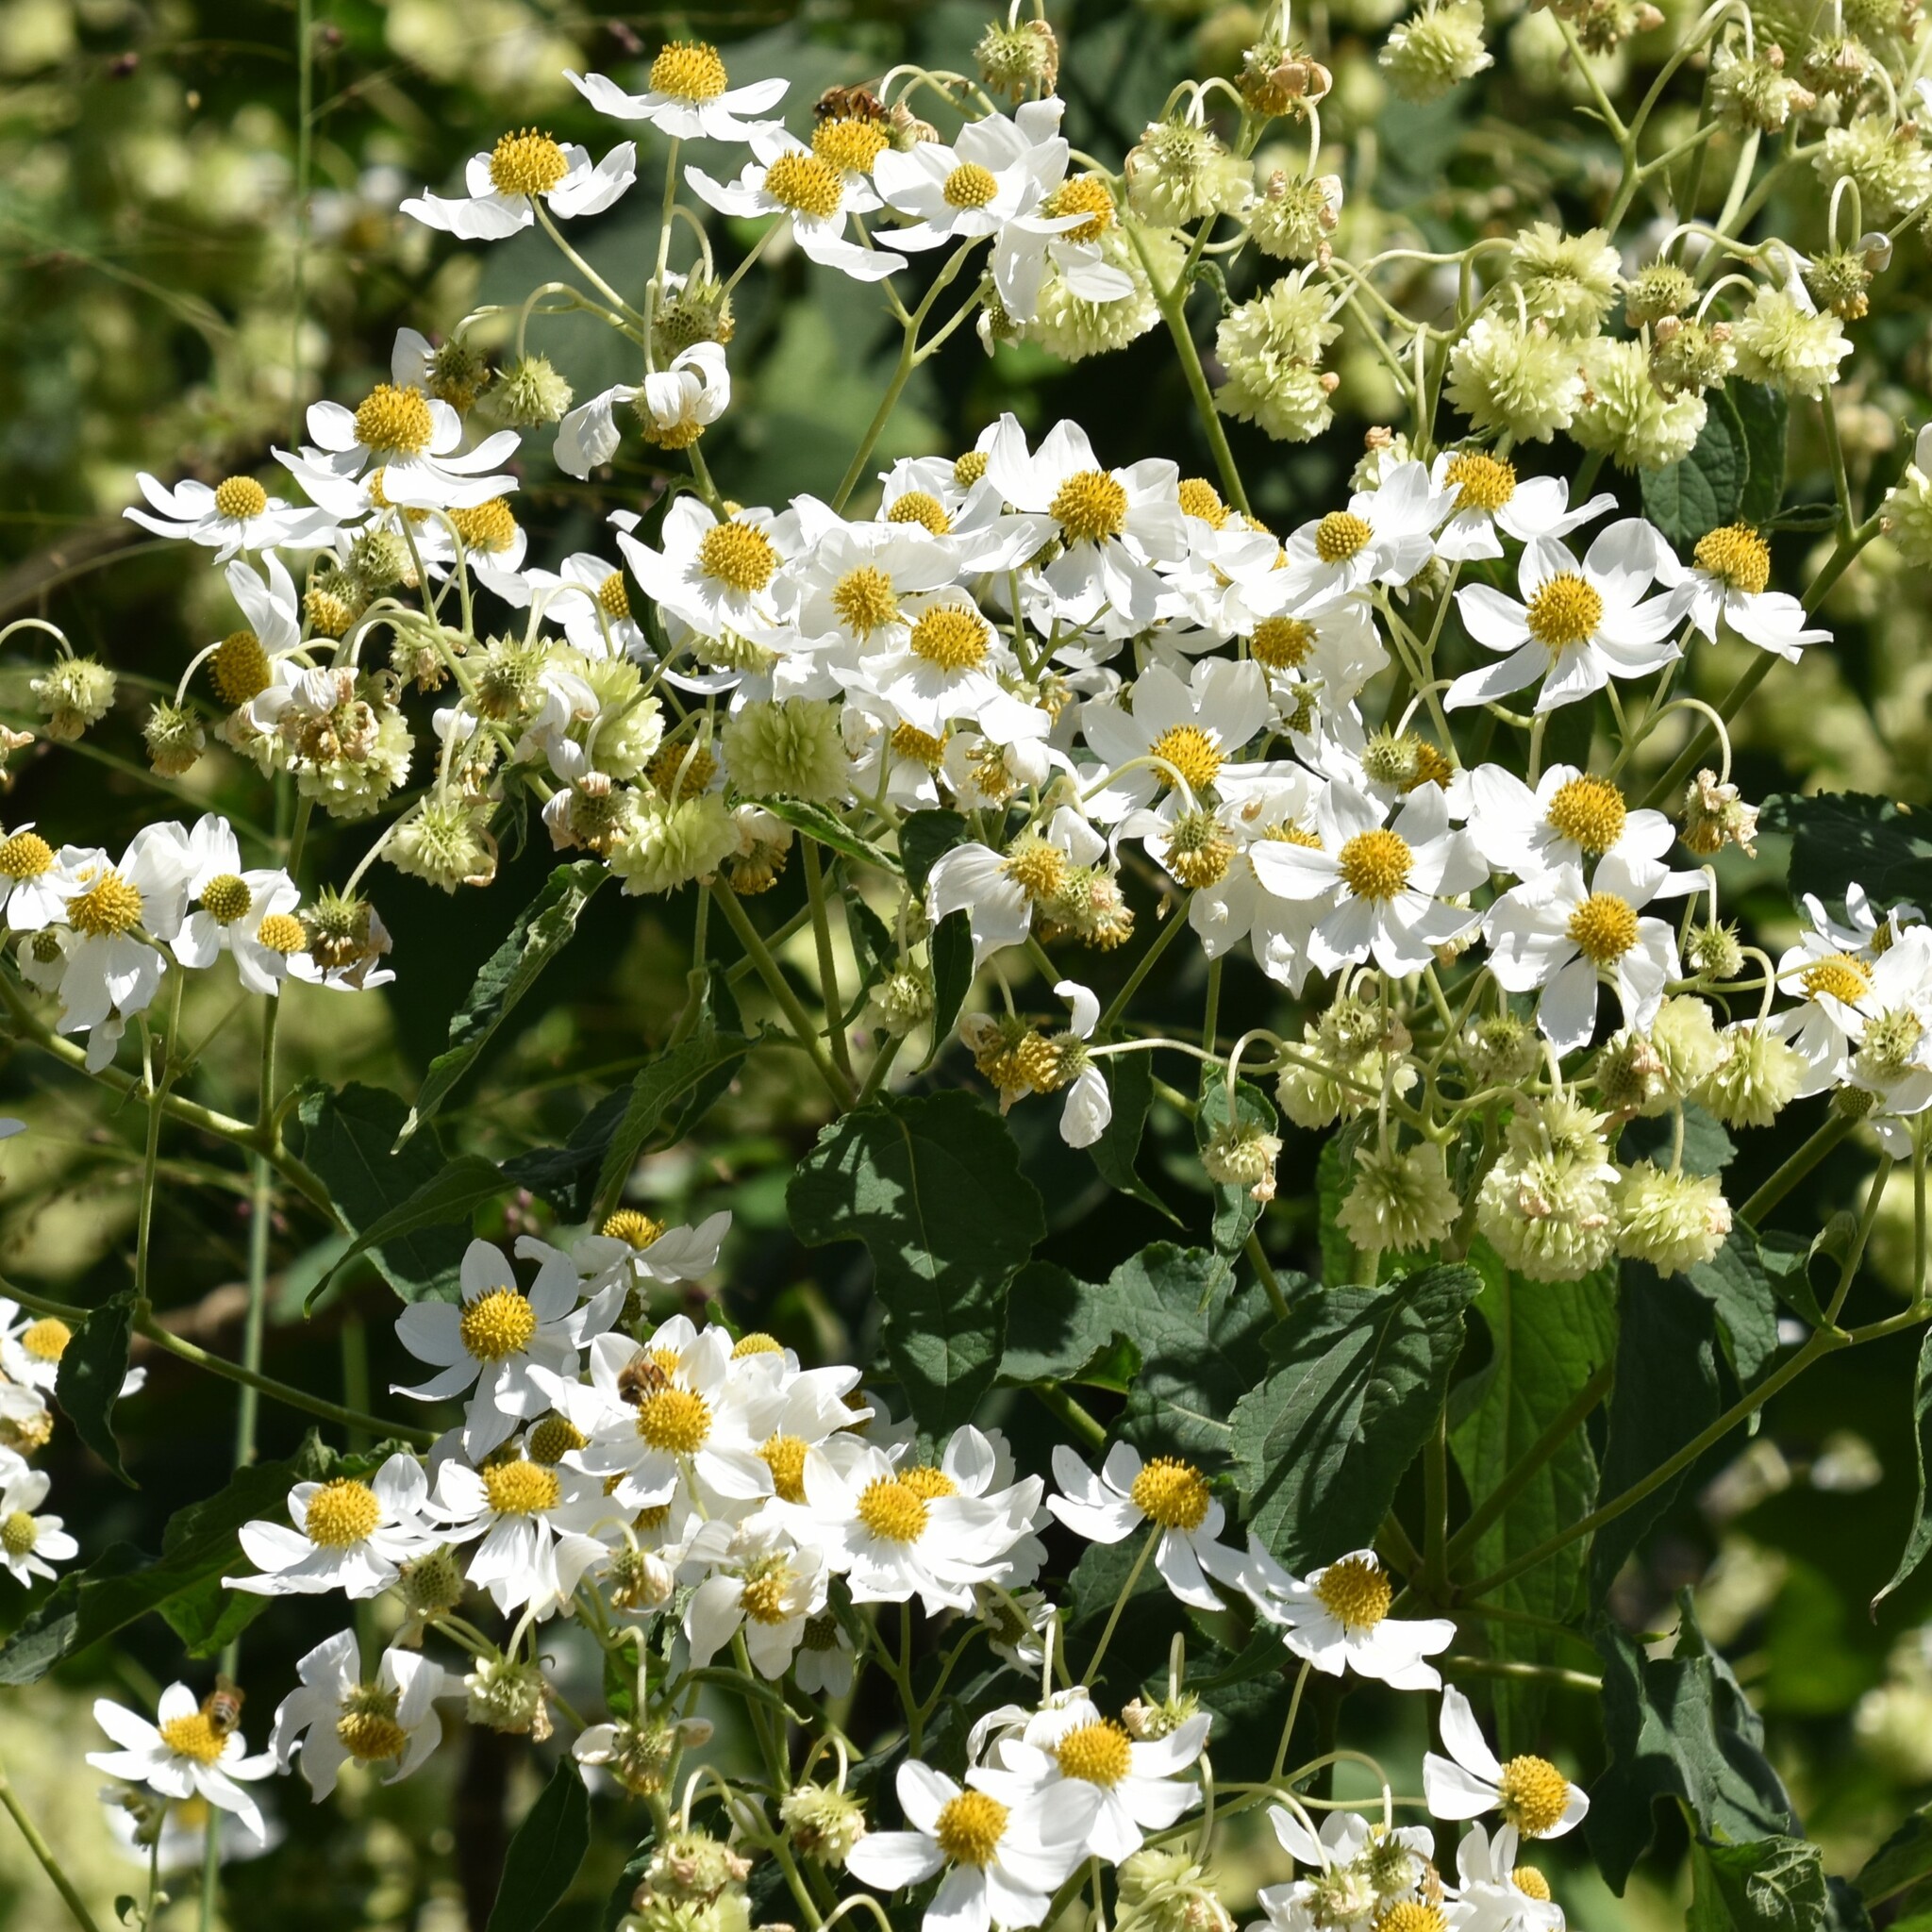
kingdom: Plantae
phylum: Tracheophyta
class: Magnoliopsida
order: Asterales
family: Asteraceae
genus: Montanoa
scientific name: Montanoa hibiscifolia
